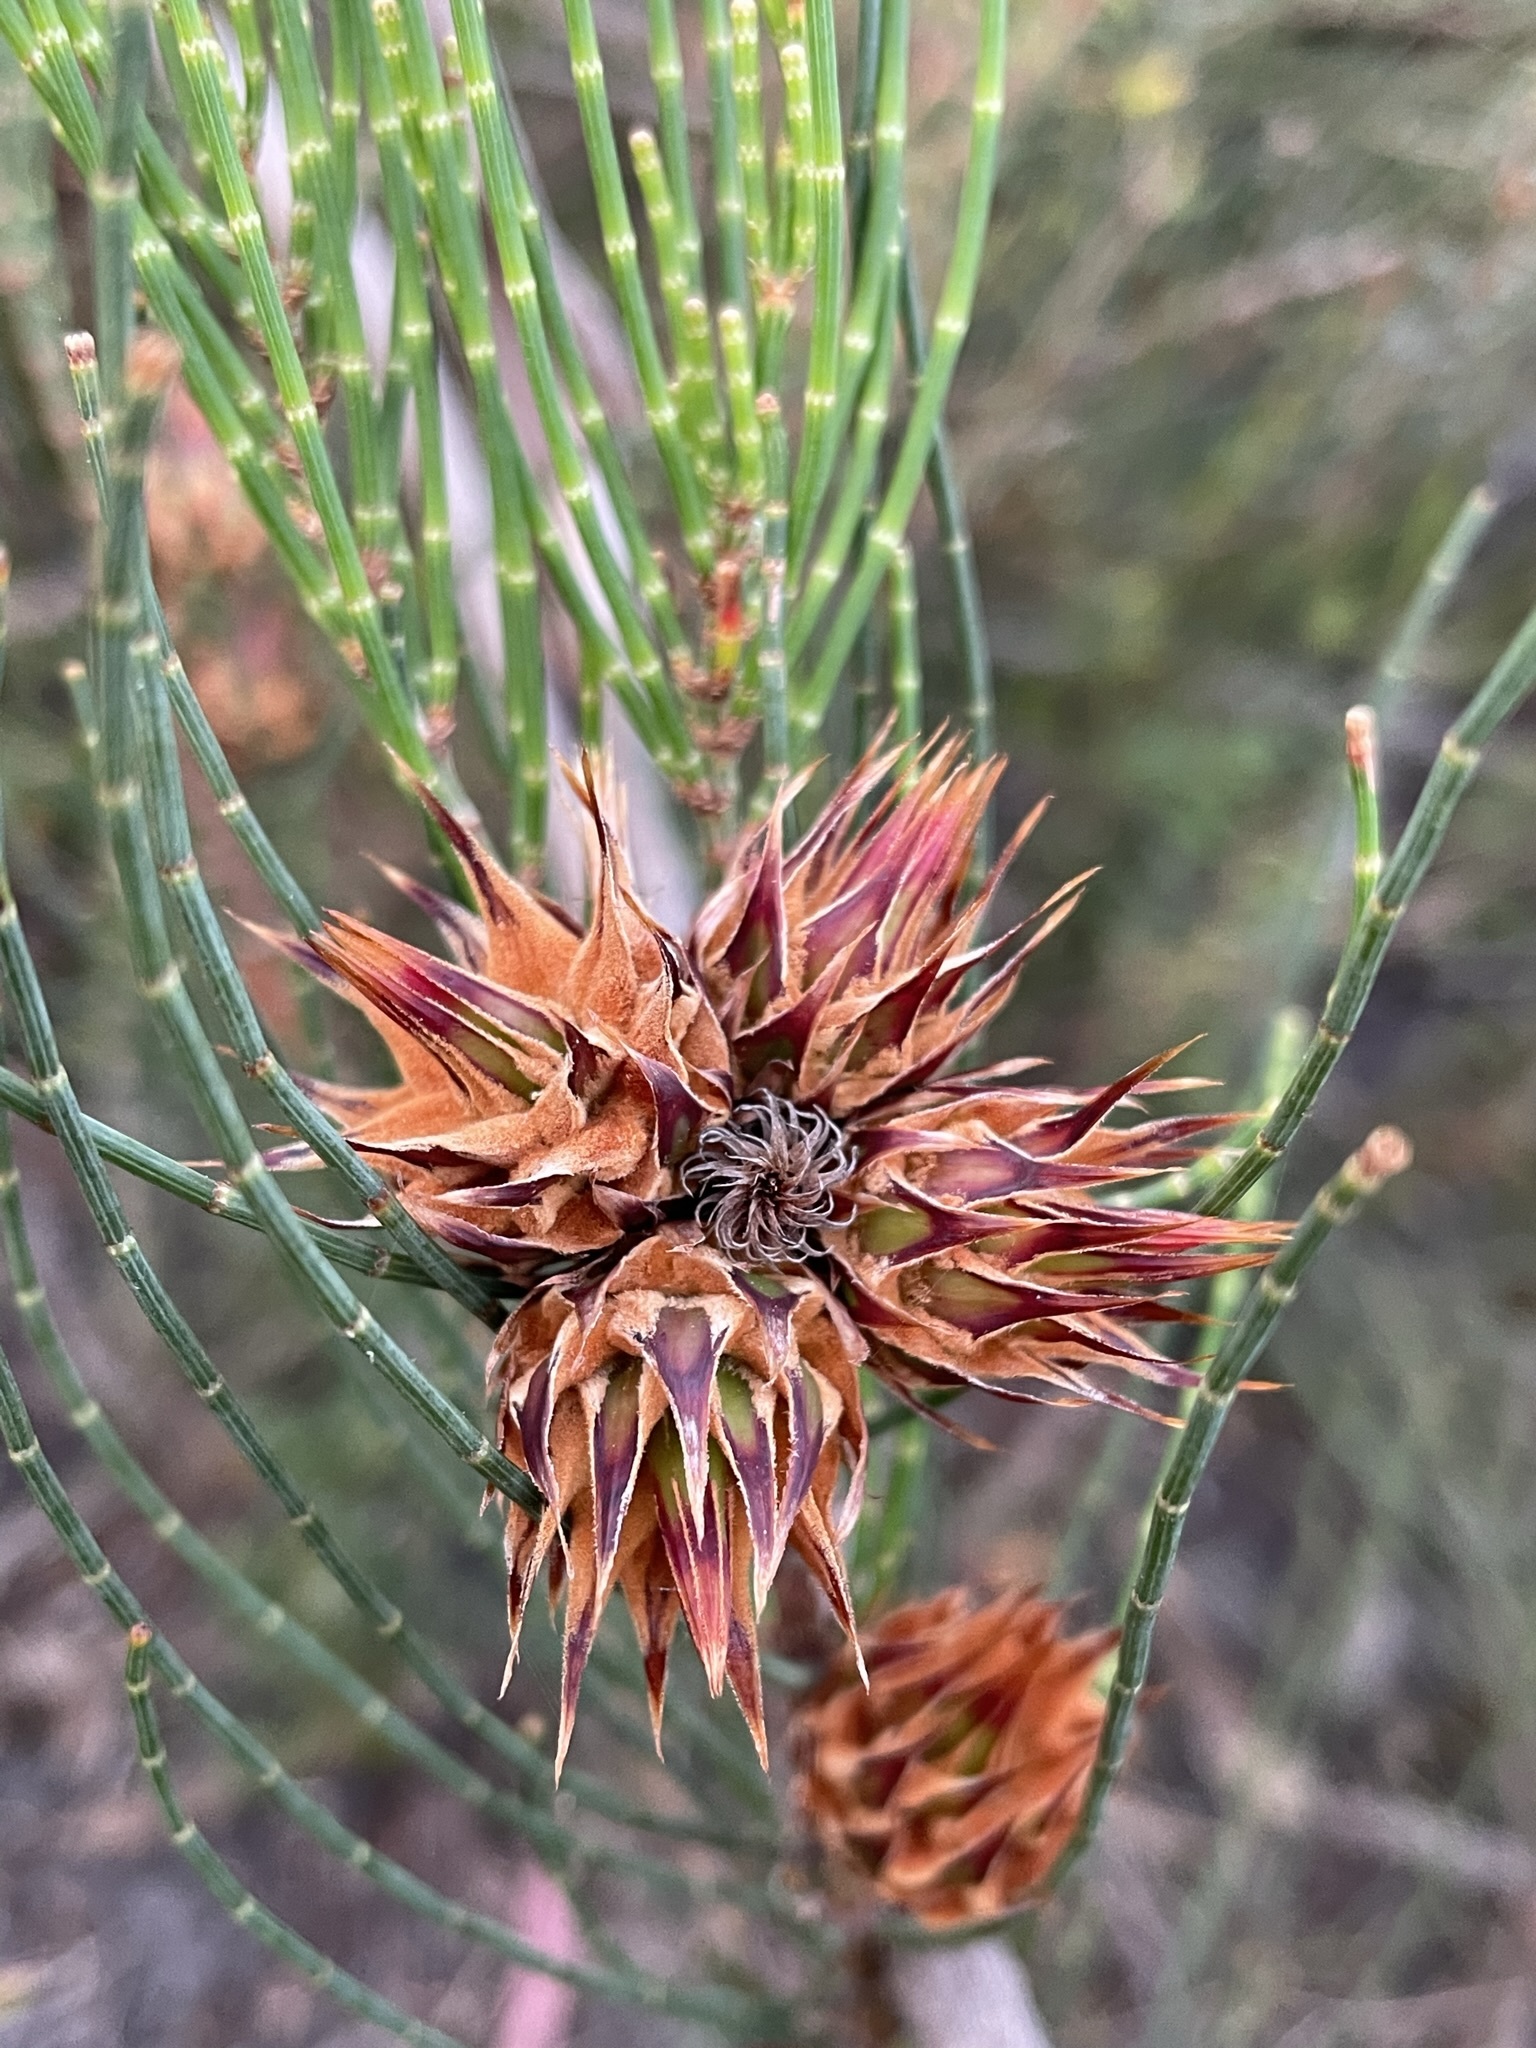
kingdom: Animalia
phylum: Arthropoda
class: Insecta
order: Hemiptera
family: Eriococcidae
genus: Cylindrococcus
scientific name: Cylindrococcus spiniferus
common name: Casuarina gall
